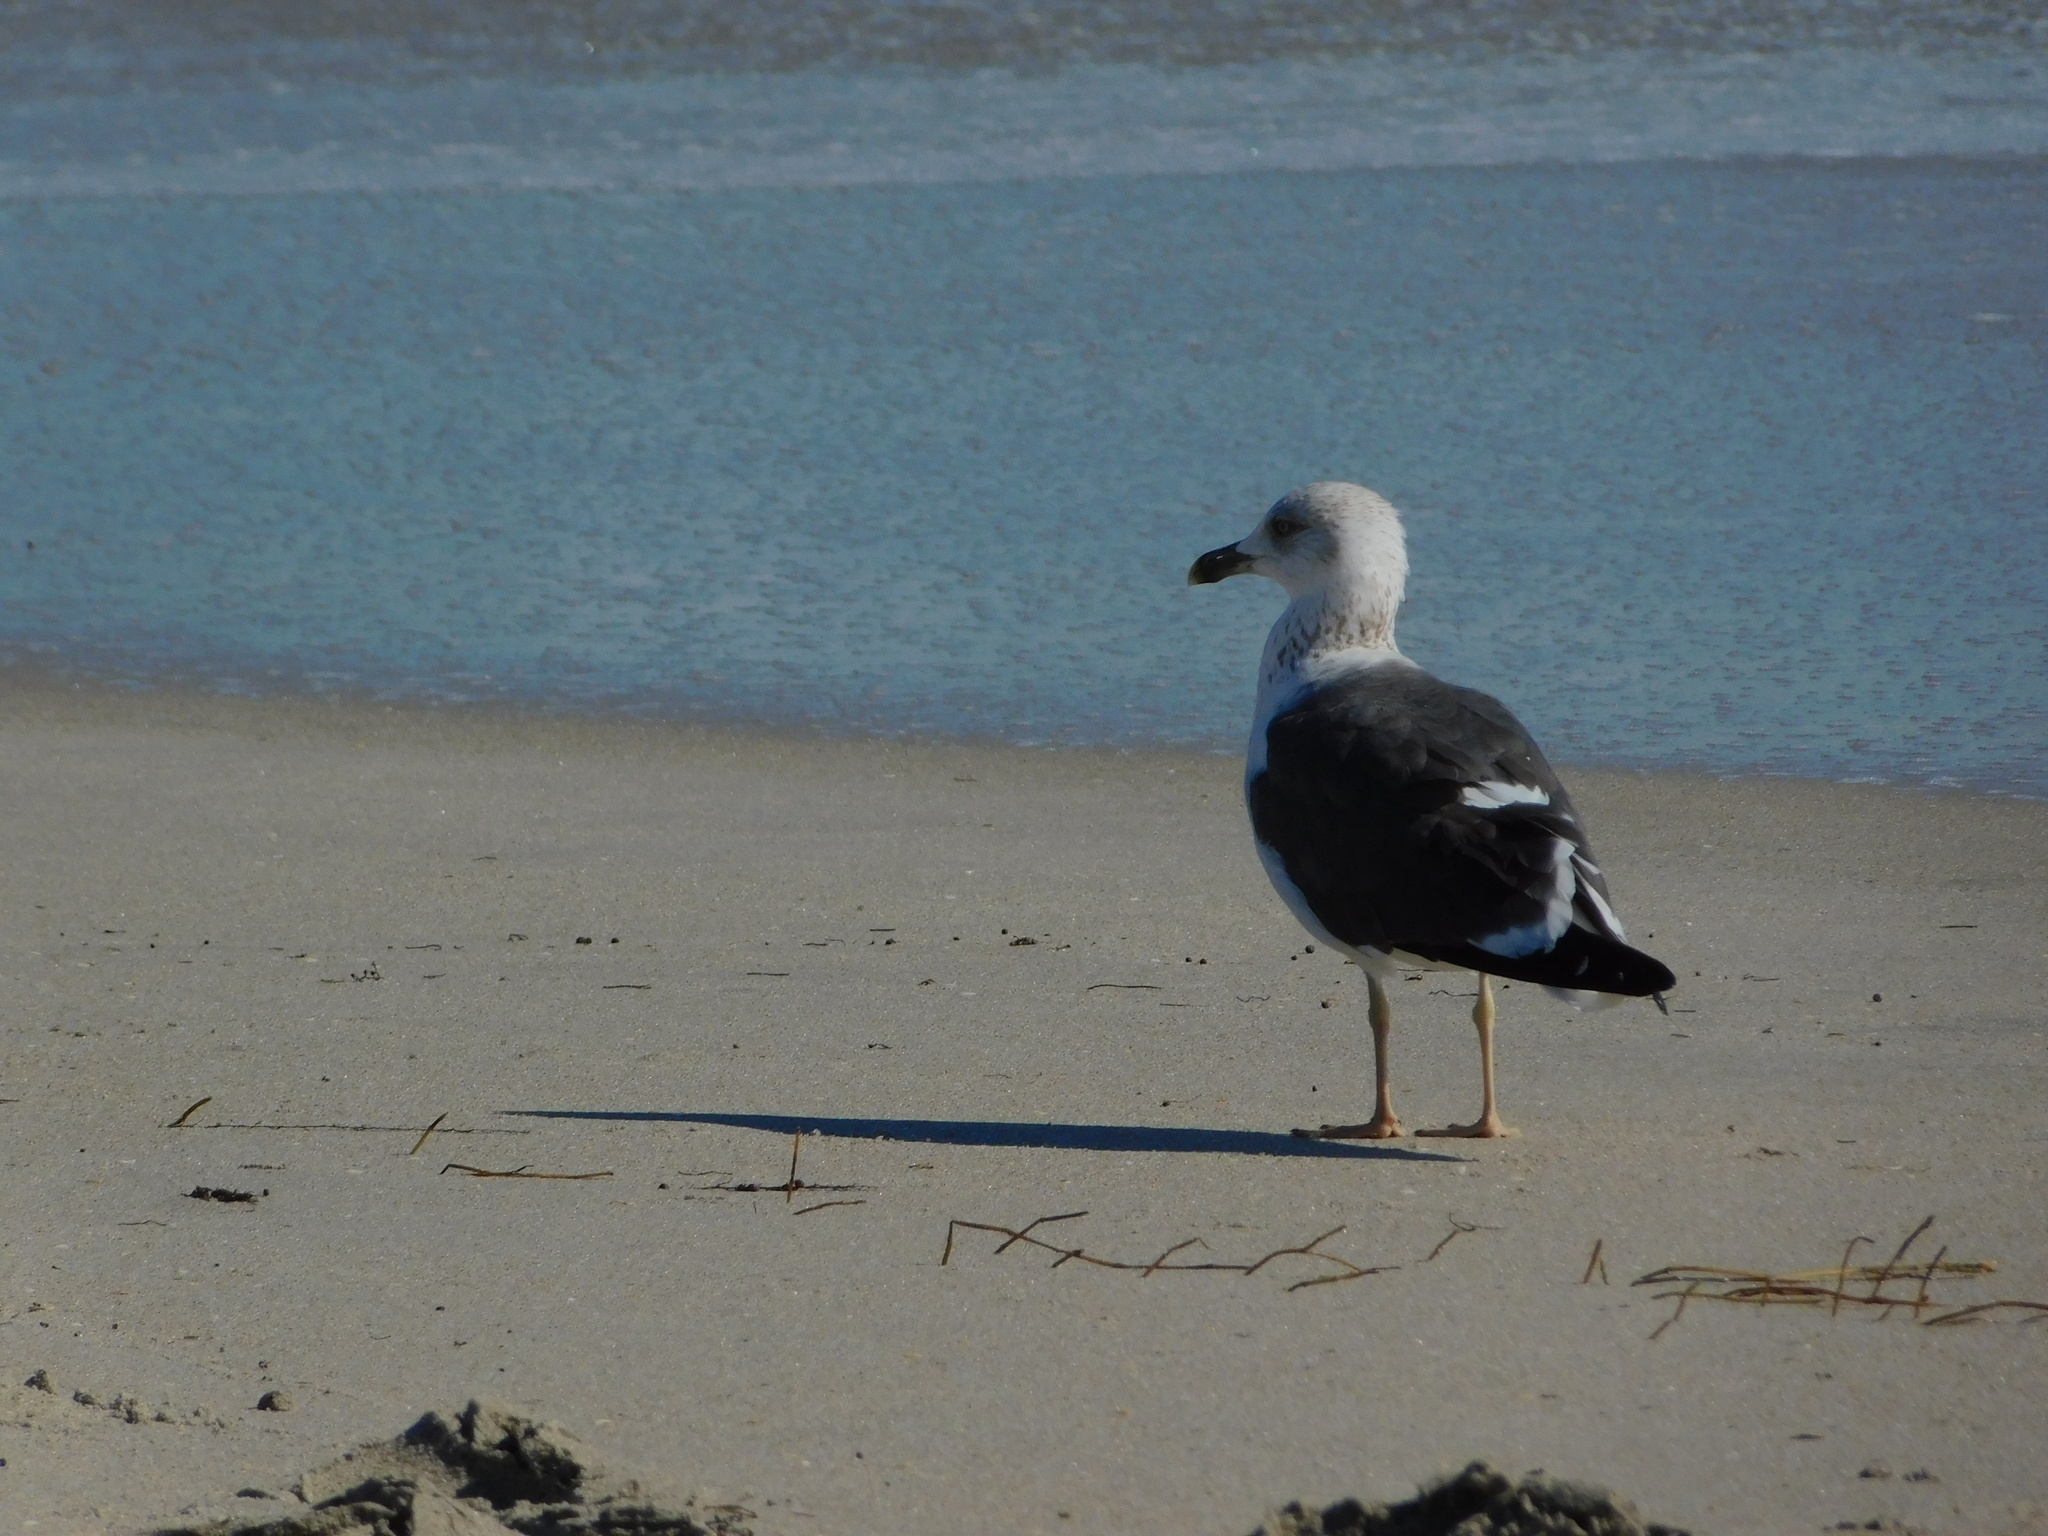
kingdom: Animalia
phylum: Chordata
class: Aves
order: Charadriiformes
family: Laridae
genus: Larus
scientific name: Larus fuscus
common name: Lesser black-backed gull
